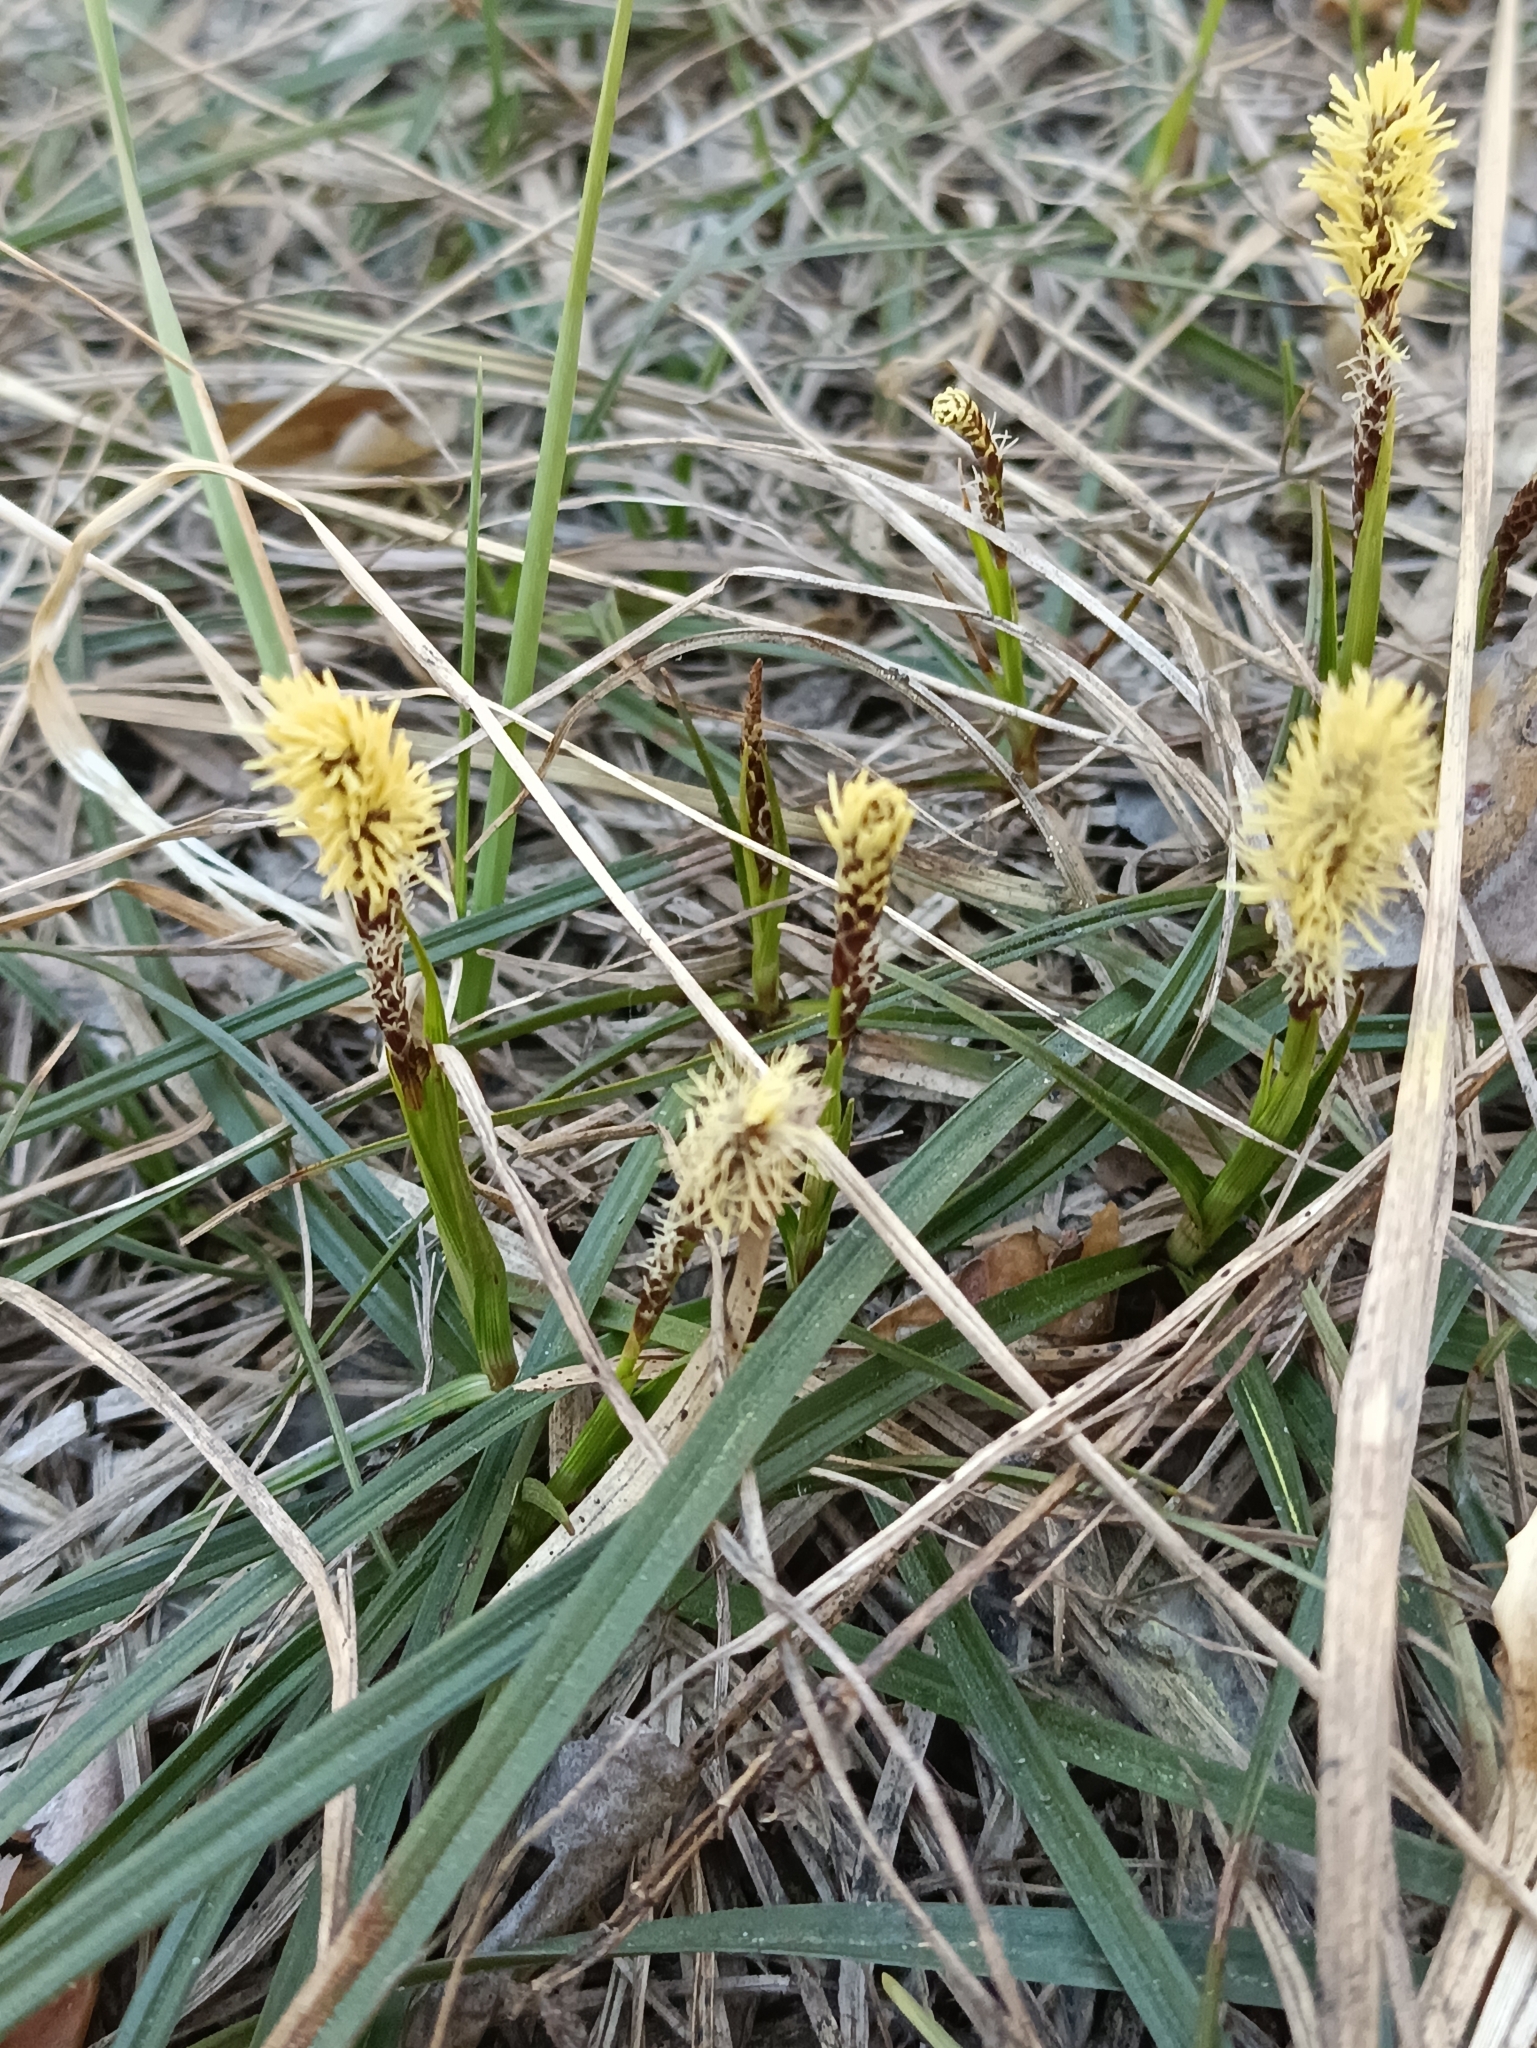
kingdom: Plantae
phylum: Tracheophyta
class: Liliopsida
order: Poales
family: Cyperaceae
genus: Carex
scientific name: Carex ericetorum
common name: Rare spring-sedge
